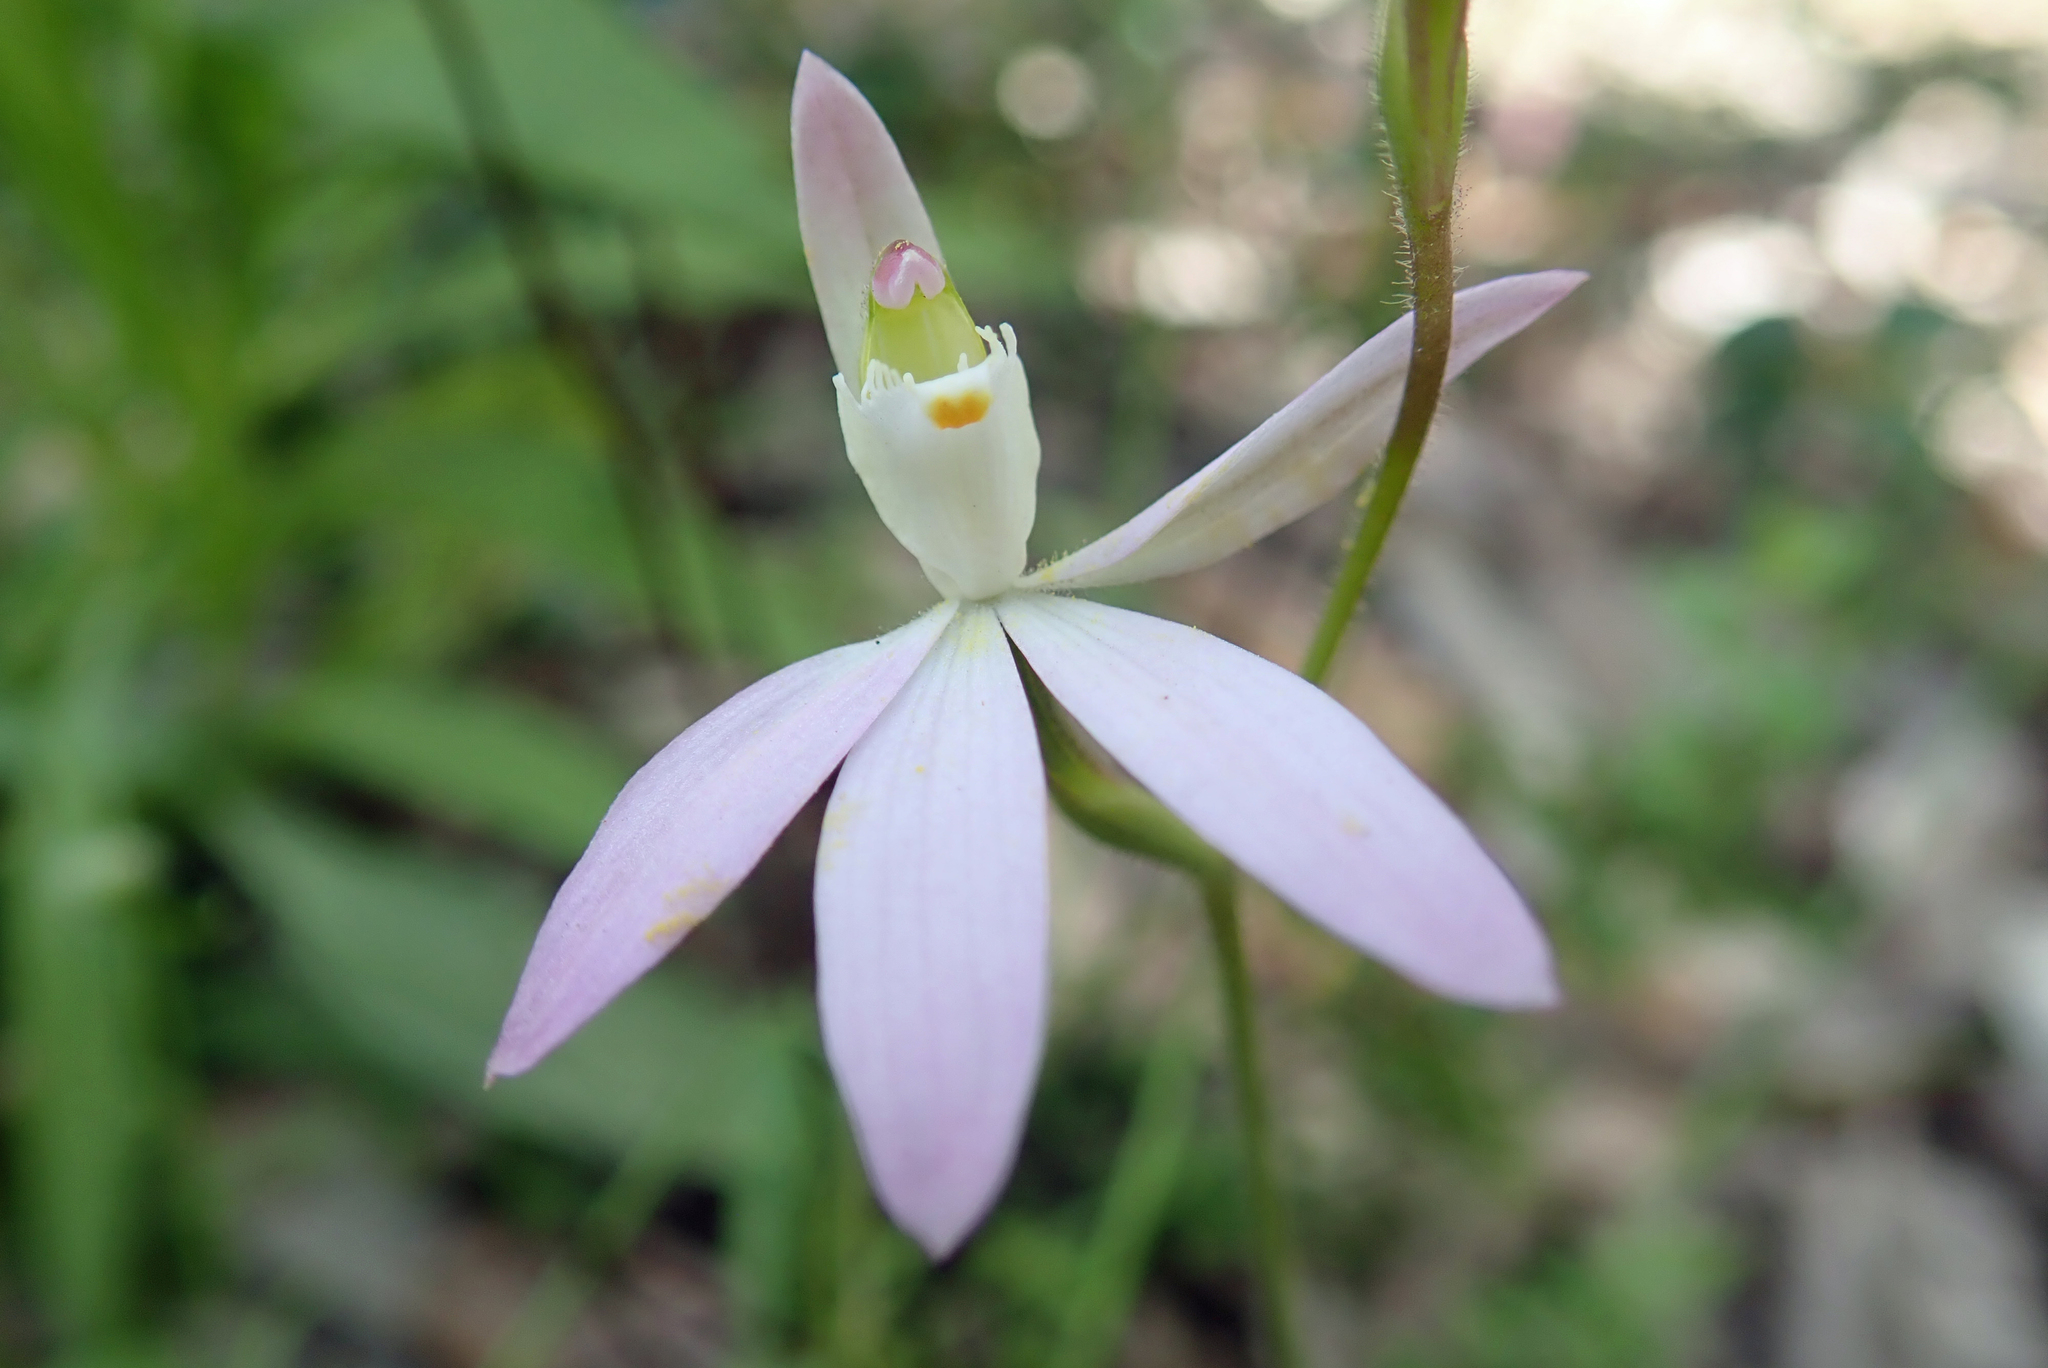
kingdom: Plantae
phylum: Tracheophyta
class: Liliopsida
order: Asparagales
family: Orchidaceae
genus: Caladenia
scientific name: Caladenia catenata
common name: White caladenia
